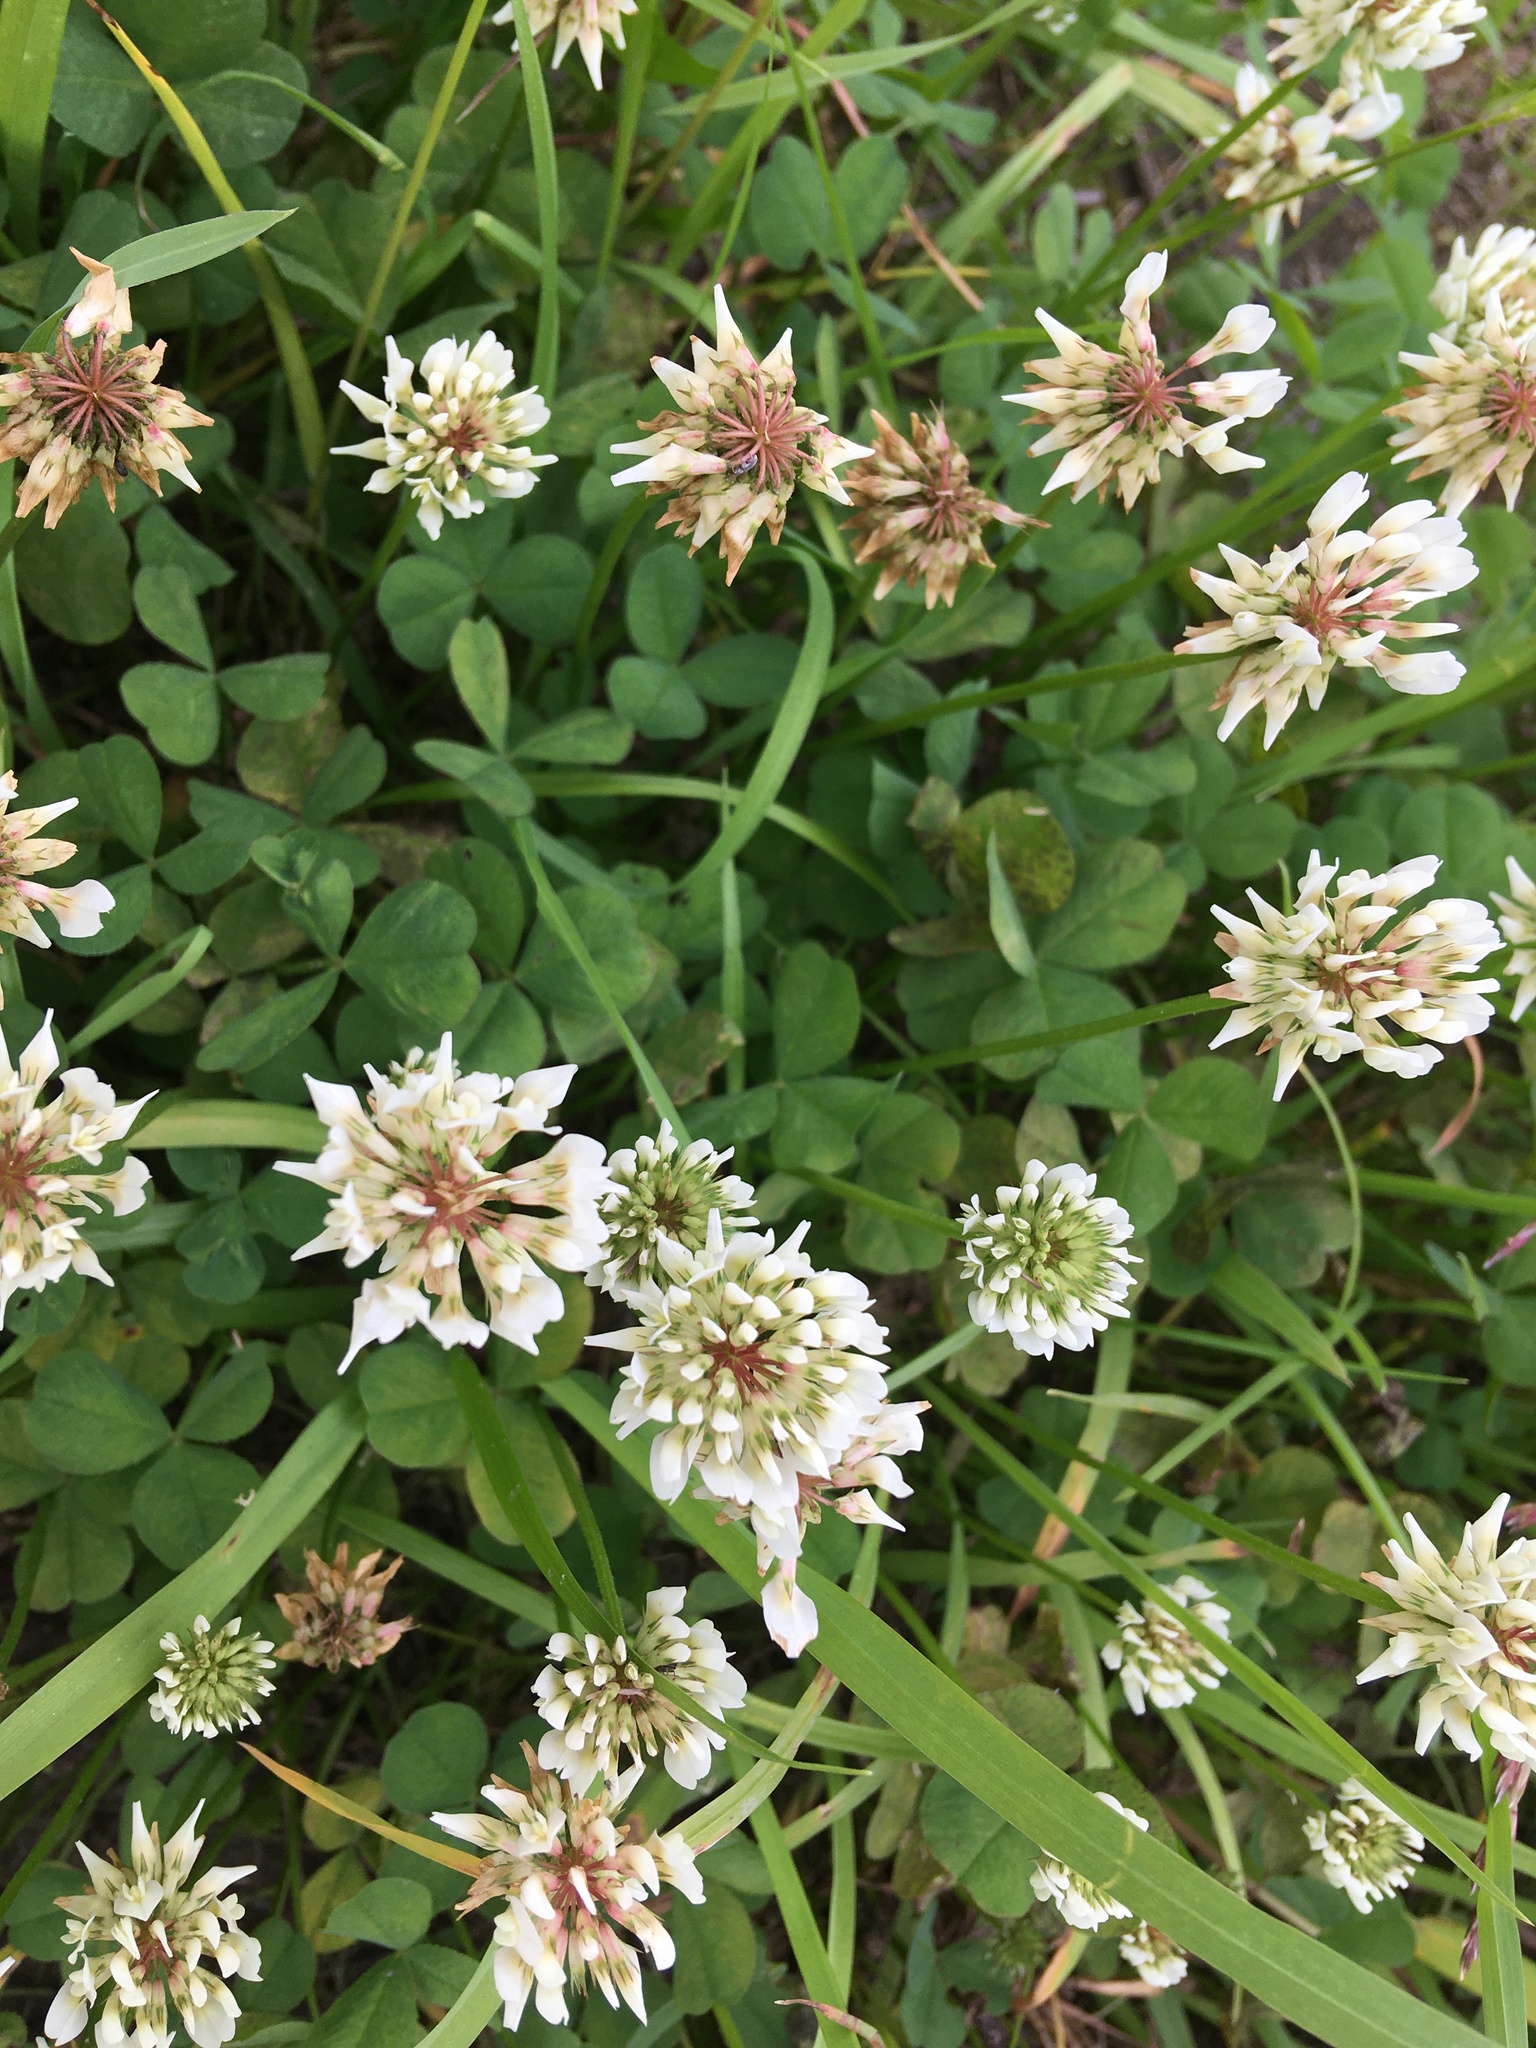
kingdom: Plantae
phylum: Tracheophyta
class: Magnoliopsida
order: Fabales
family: Fabaceae
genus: Trifolium
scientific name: Trifolium repens
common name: White clover
